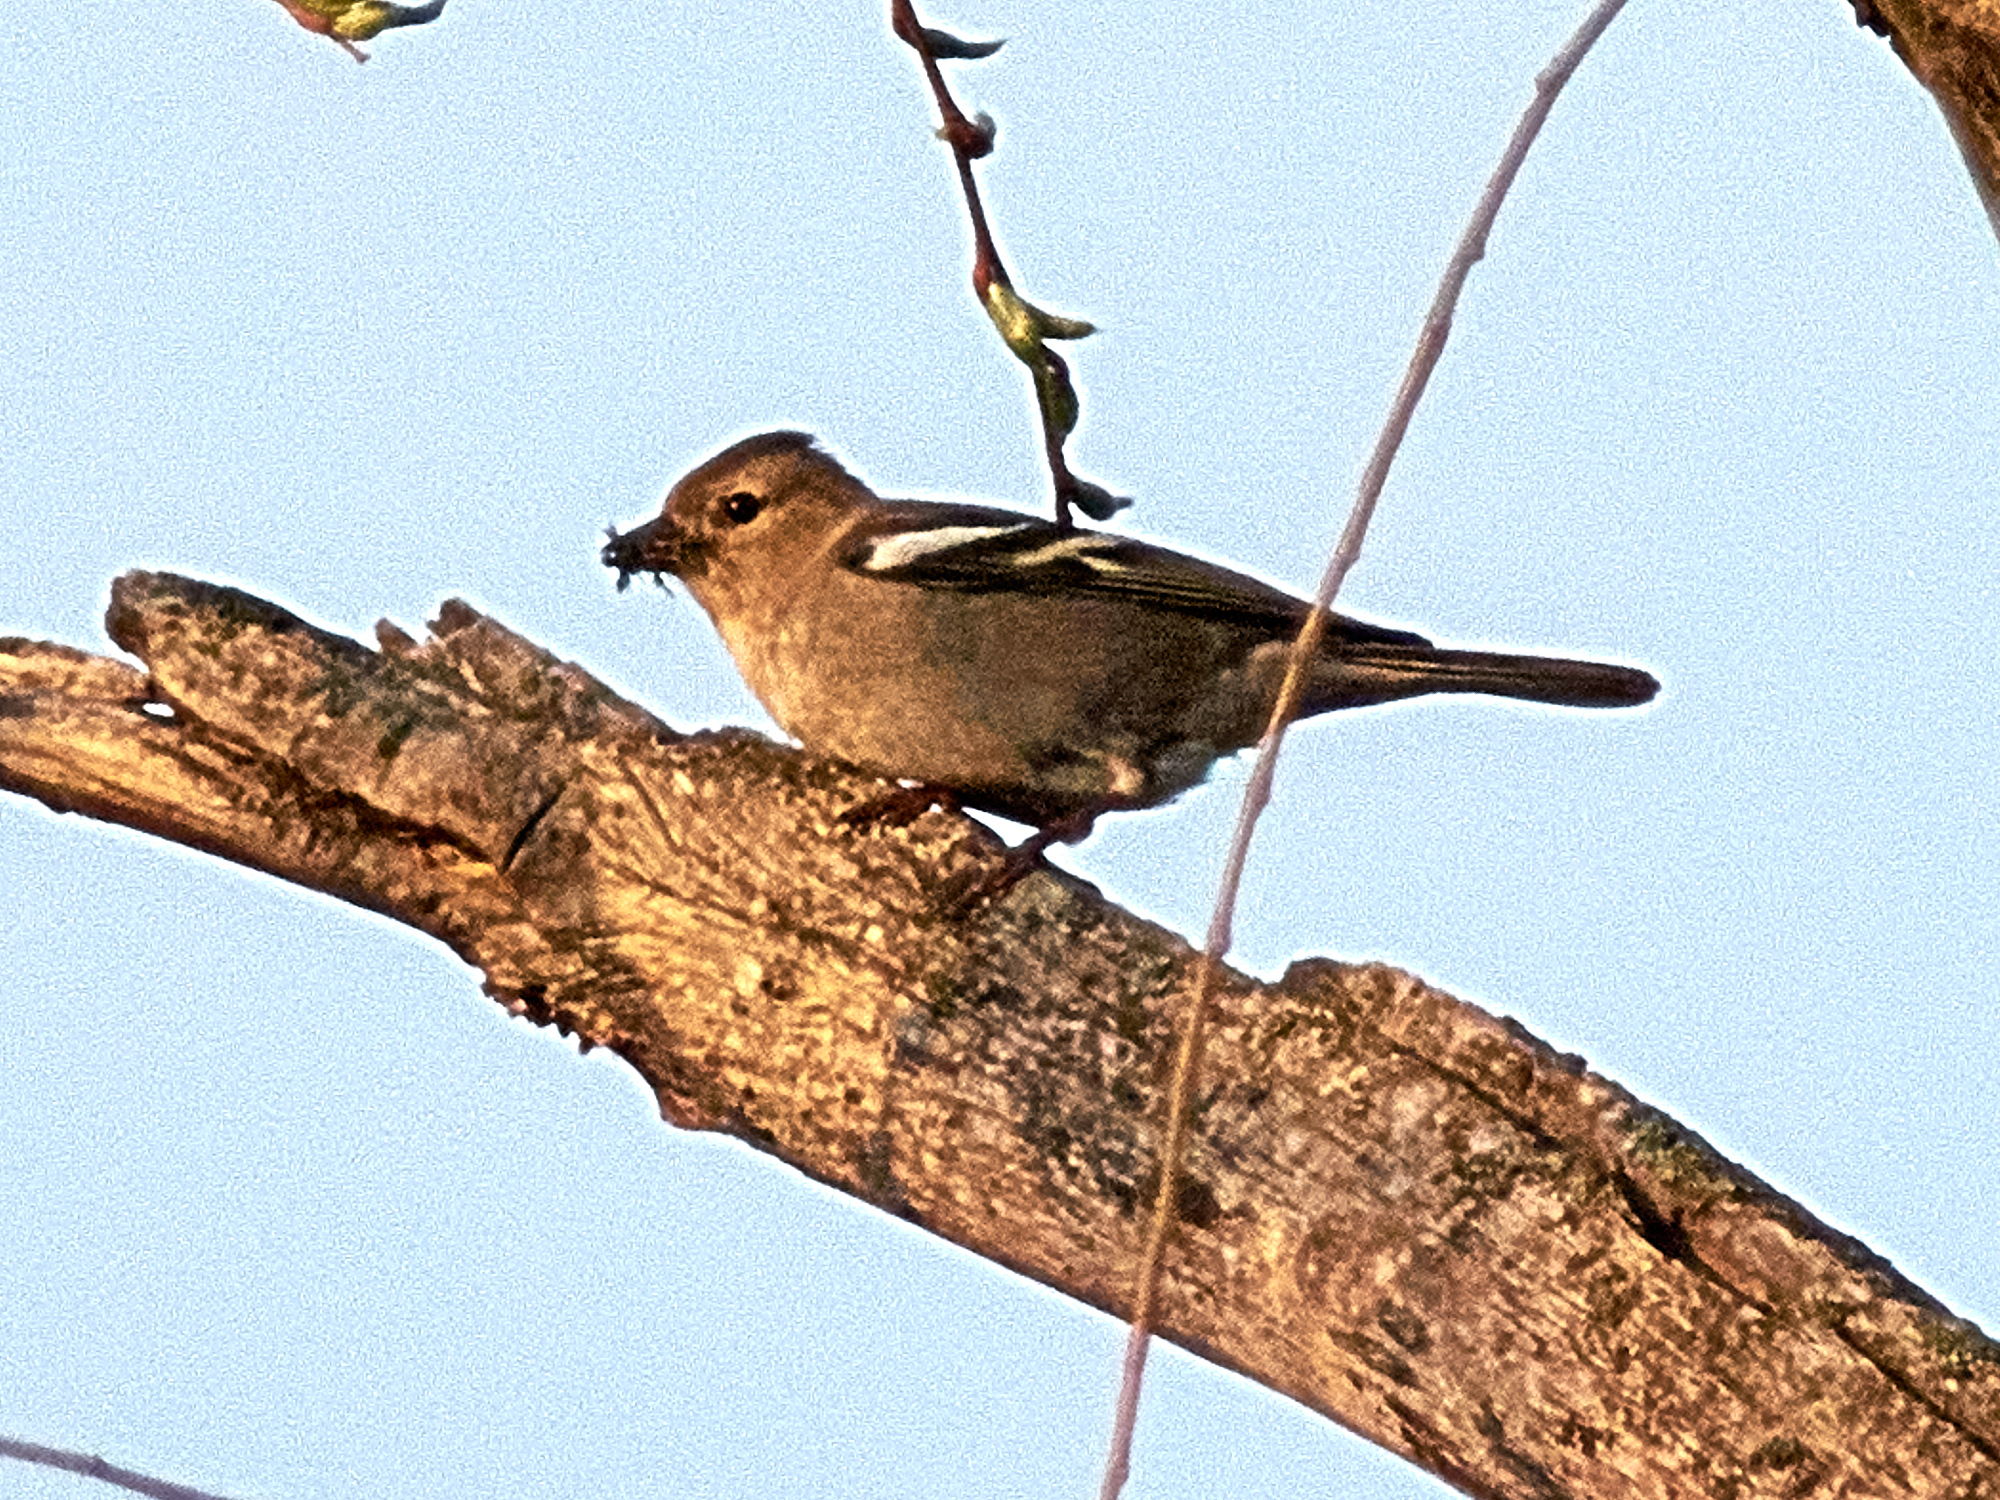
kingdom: Animalia
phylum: Chordata
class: Aves
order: Passeriformes
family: Fringillidae
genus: Fringilla
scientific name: Fringilla coelebs
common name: Common chaffinch
